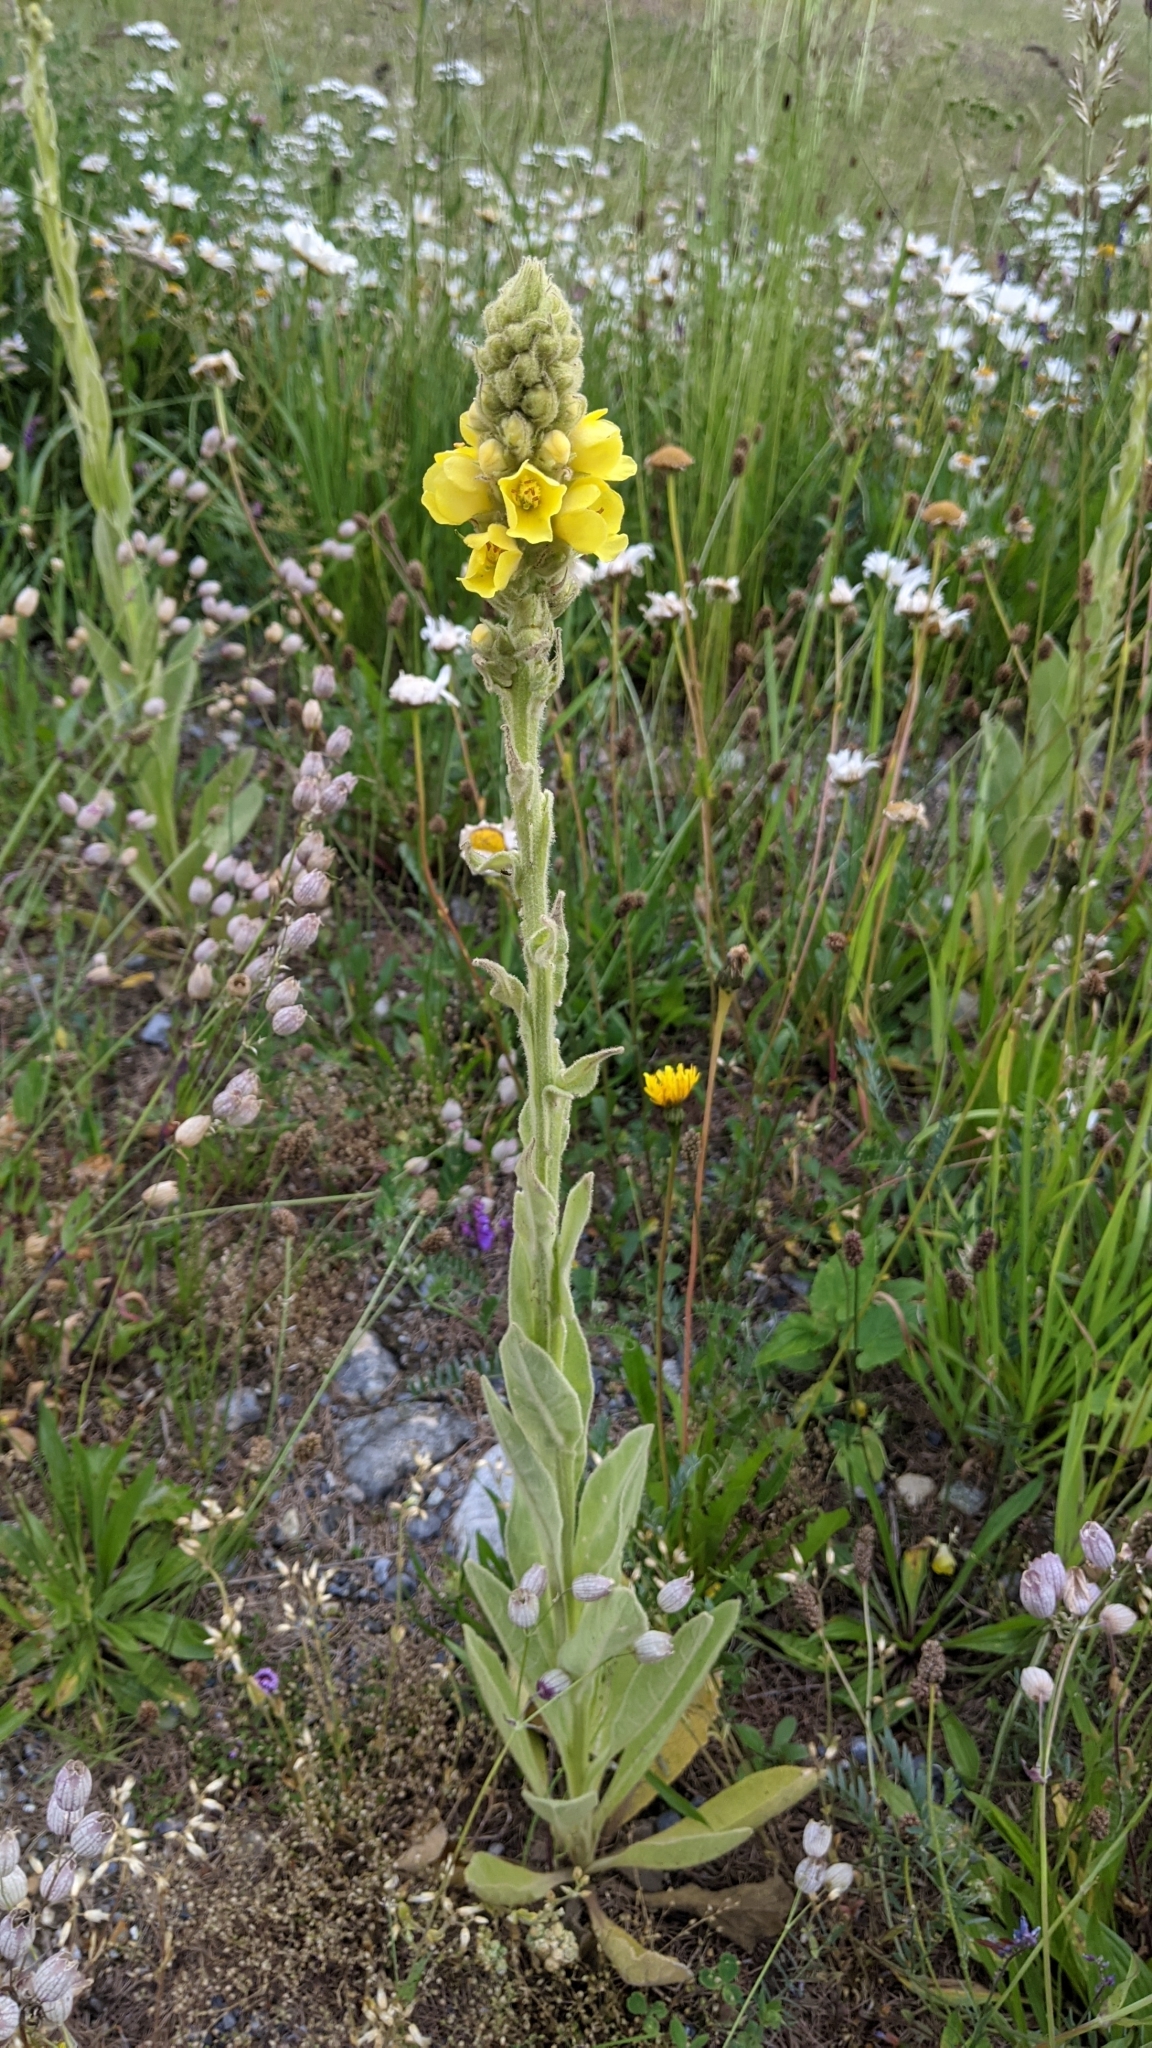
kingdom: Plantae
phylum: Tracheophyta
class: Magnoliopsida
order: Lamiales
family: Scrophulariaceae
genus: Verbascum
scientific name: Verbascum thapsus
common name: Common mullein
